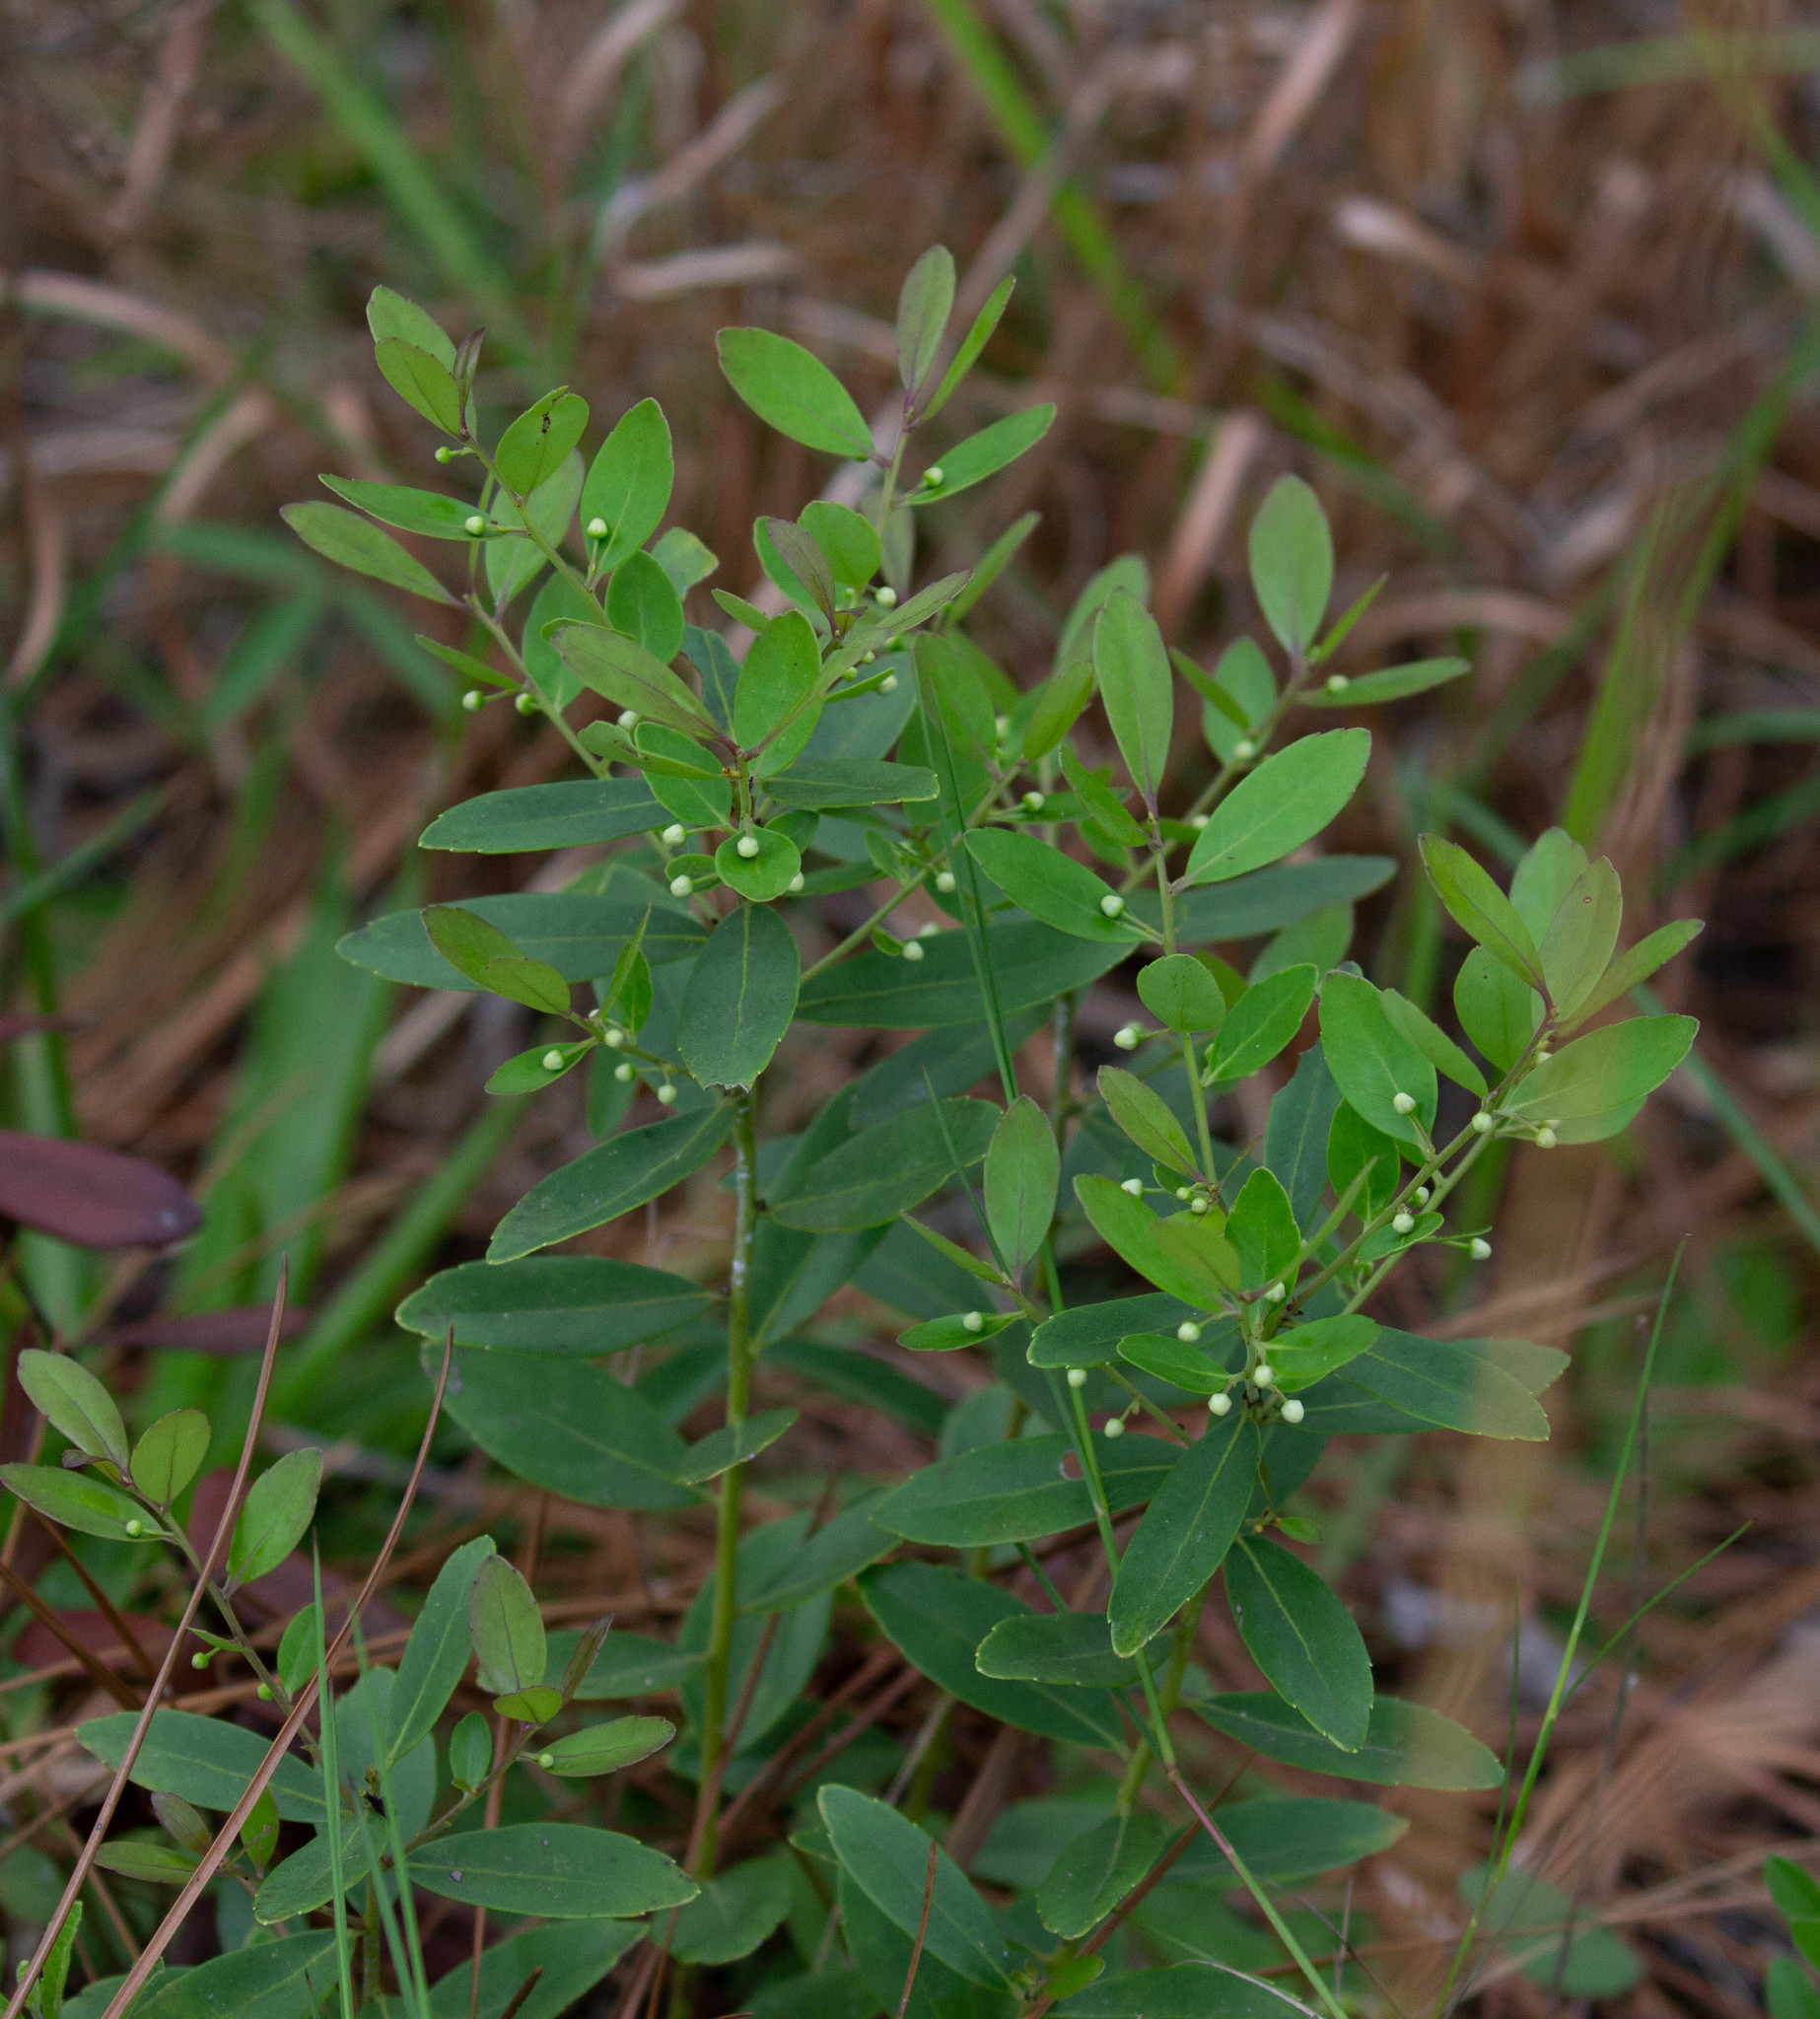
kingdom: Plantae
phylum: Tracheophyta
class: Magnoliopsida
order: Aquifoliales
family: Aquifoliaceae
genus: Ilex
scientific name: Ilex glabra
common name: Bitter gallberry
